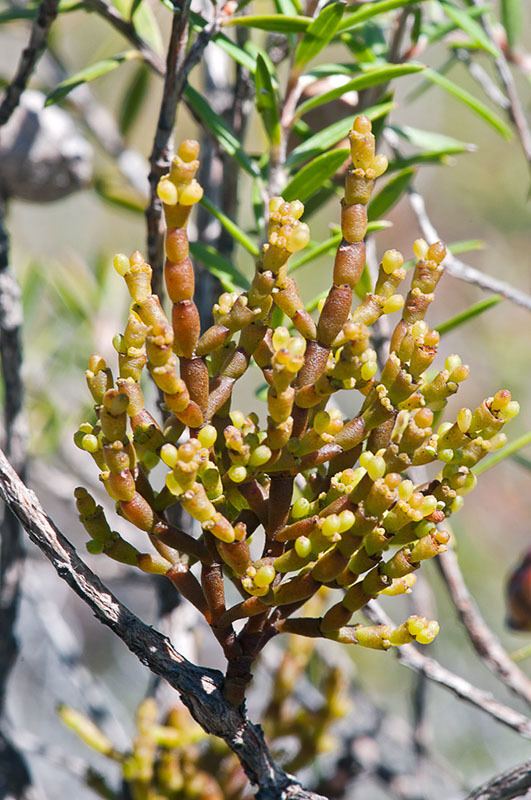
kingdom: Plantae
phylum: Tracheophyta
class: Magnoliopsida
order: Santalales
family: Viscaceae
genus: Korthalsella
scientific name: Korthalsella salicornioides
